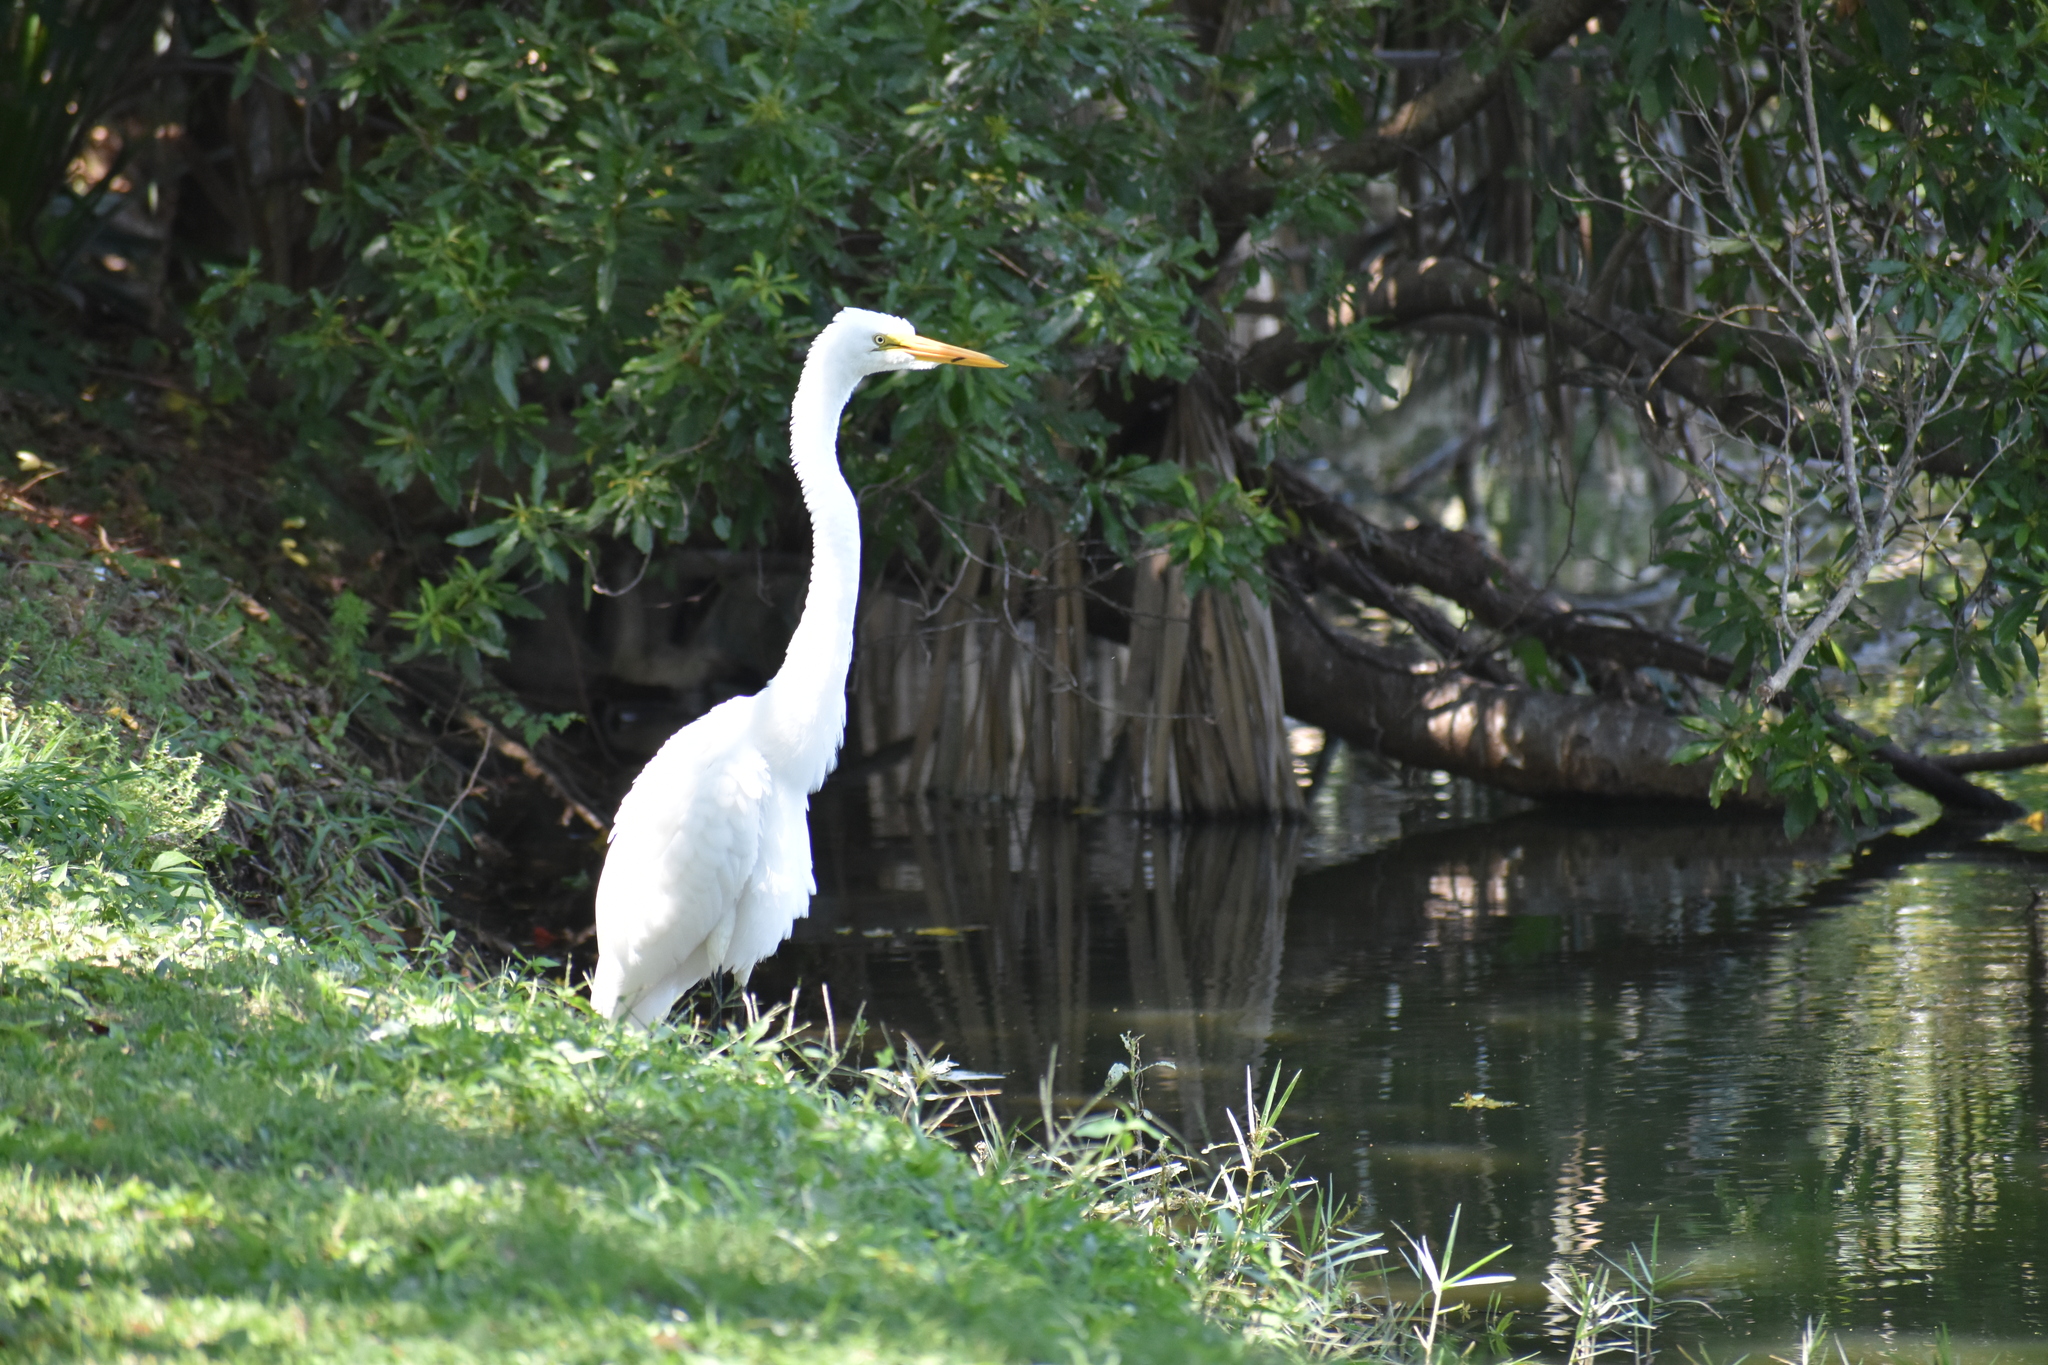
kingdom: Animalia
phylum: Chordata
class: Aves
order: Pelecaniformes
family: Ardeidae
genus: Ardea
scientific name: Ardea alba
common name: Great egret
